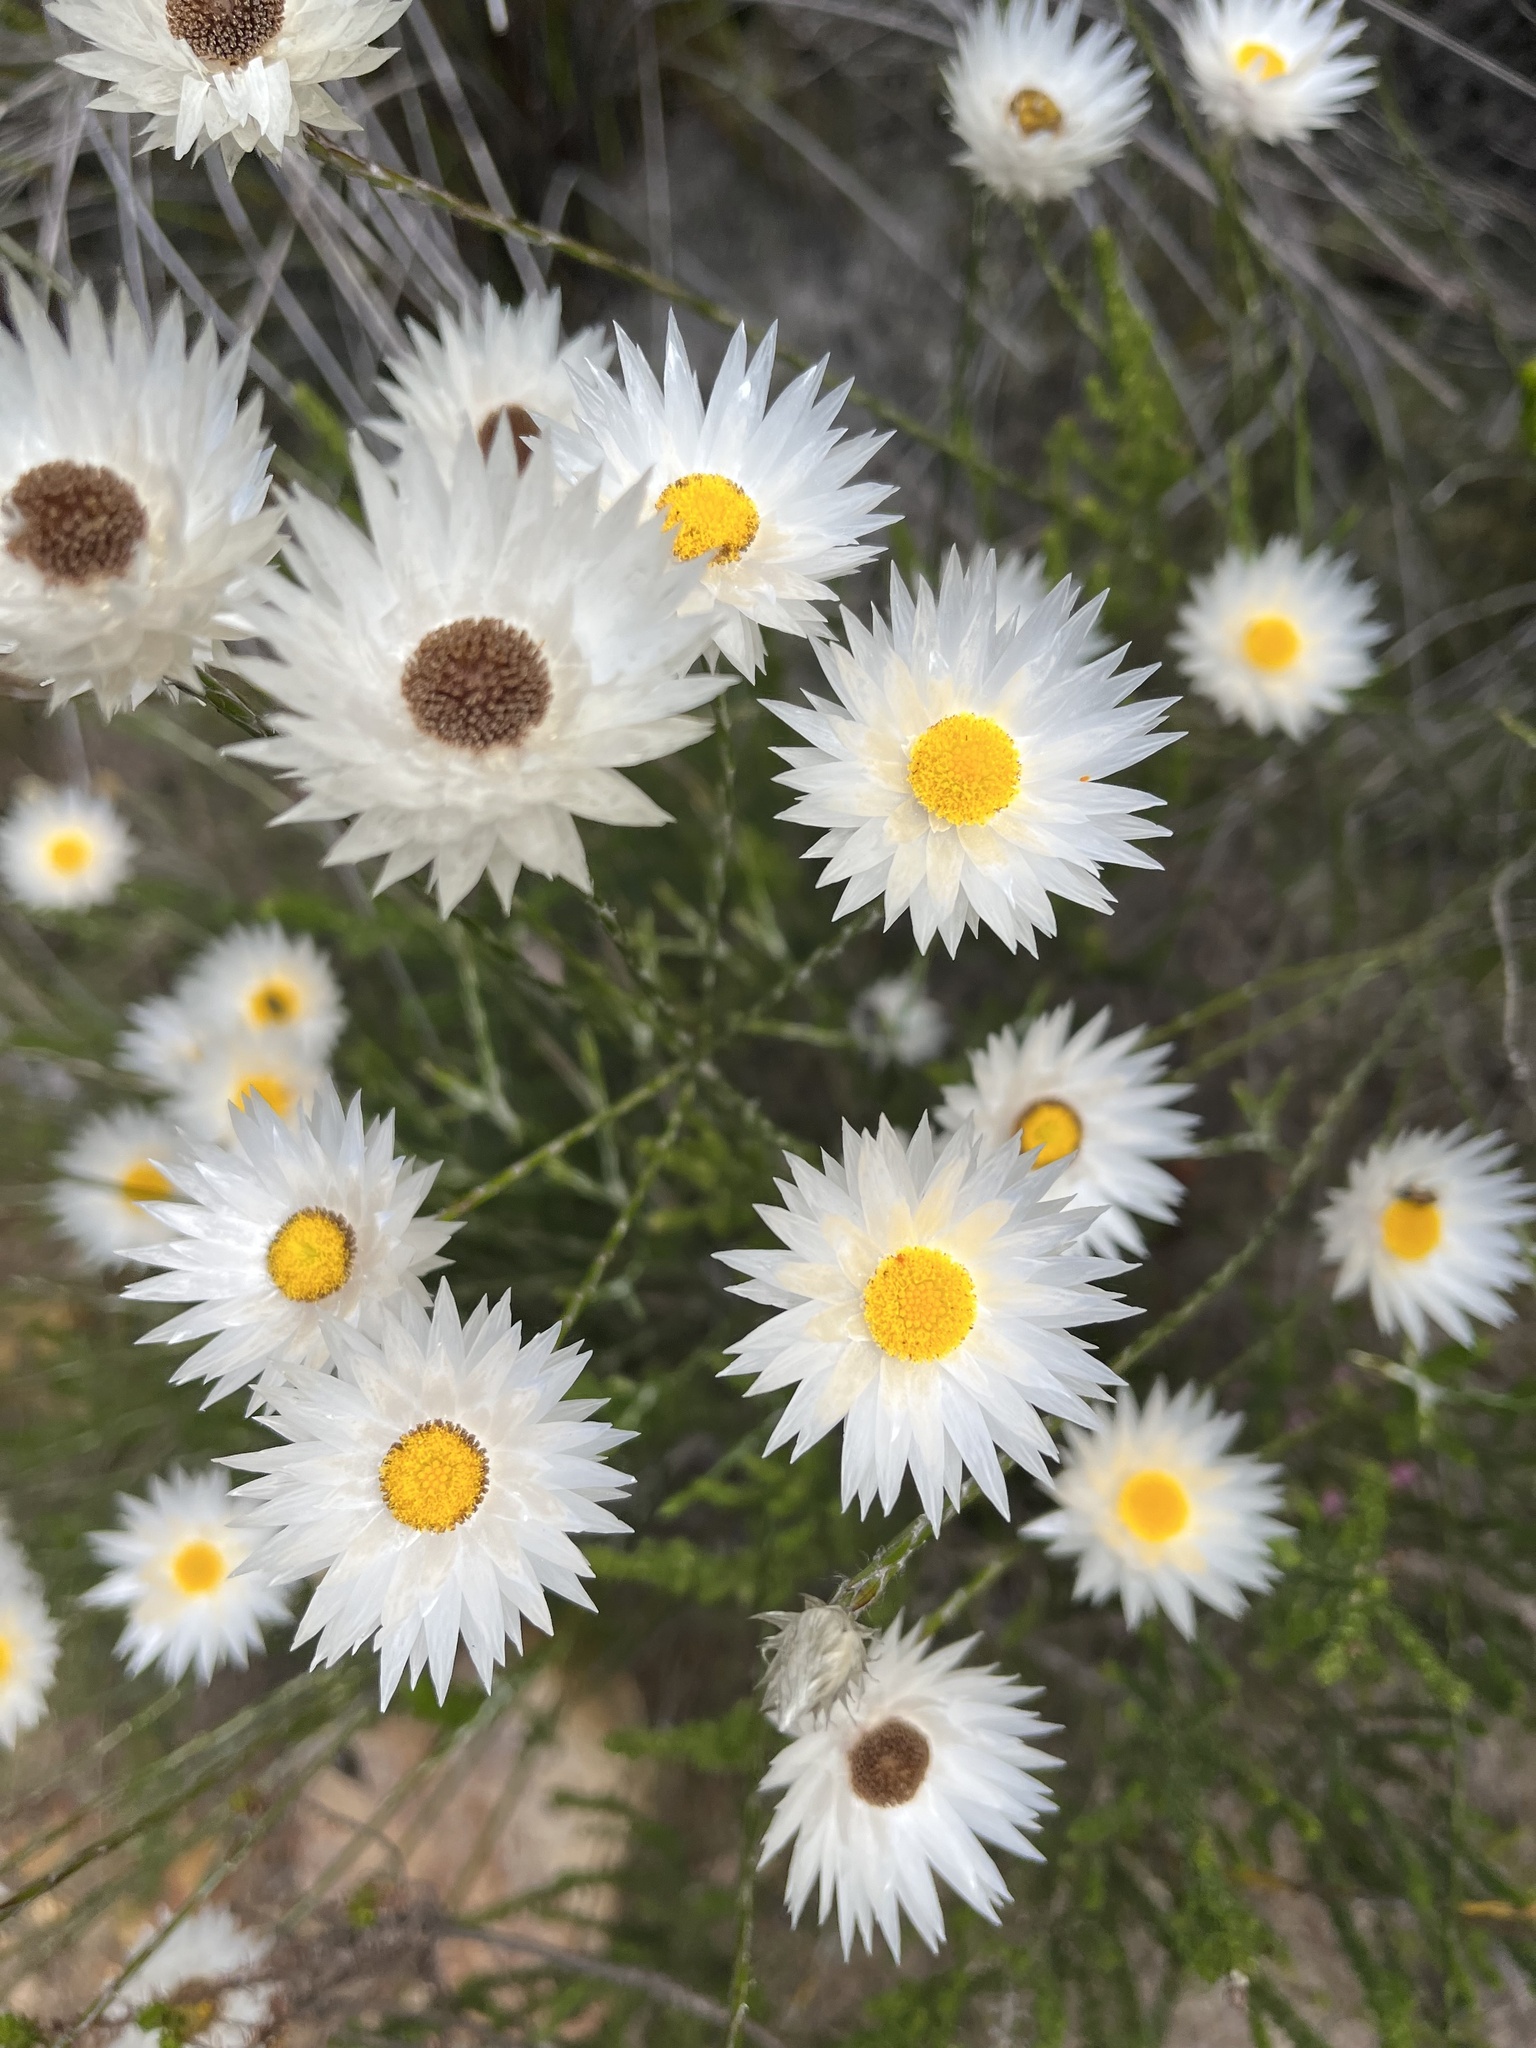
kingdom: Plantae
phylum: Tracheophyta
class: Magnoliopsida
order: Asterales
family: Asteraceae
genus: Edmondia
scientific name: Edmondia sesamoides
